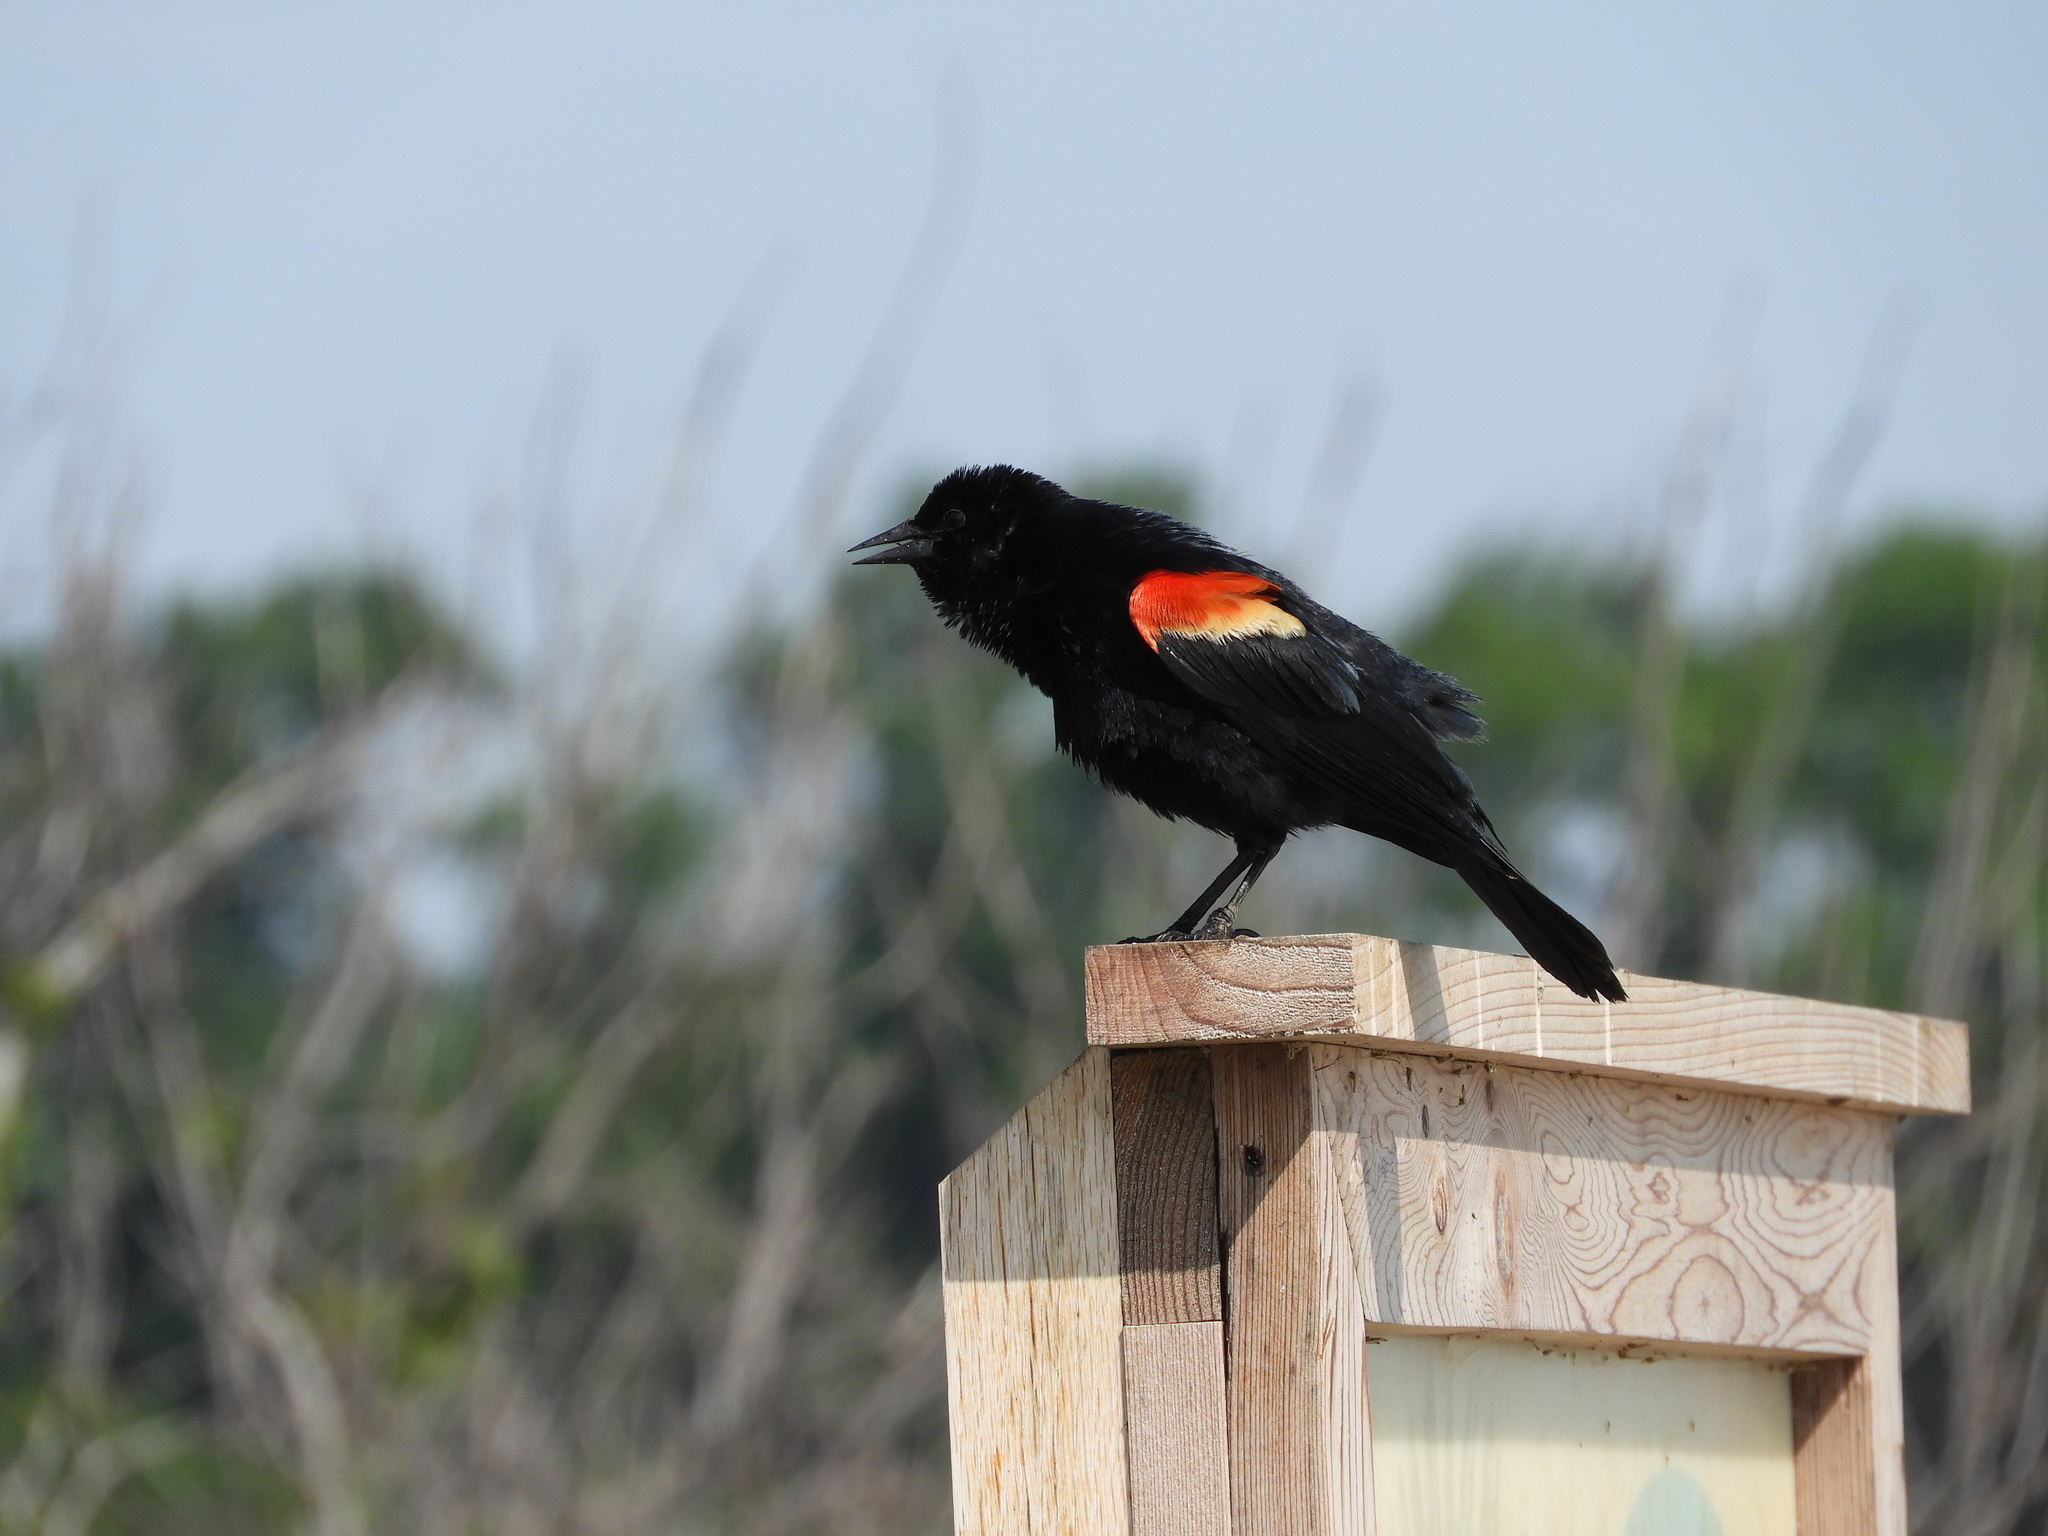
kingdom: Animalia
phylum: Chordata
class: Aves
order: Passeriformes
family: Icteridae
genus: Agelaius
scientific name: Agelaius phoeniceus
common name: Red-winged blackbird
